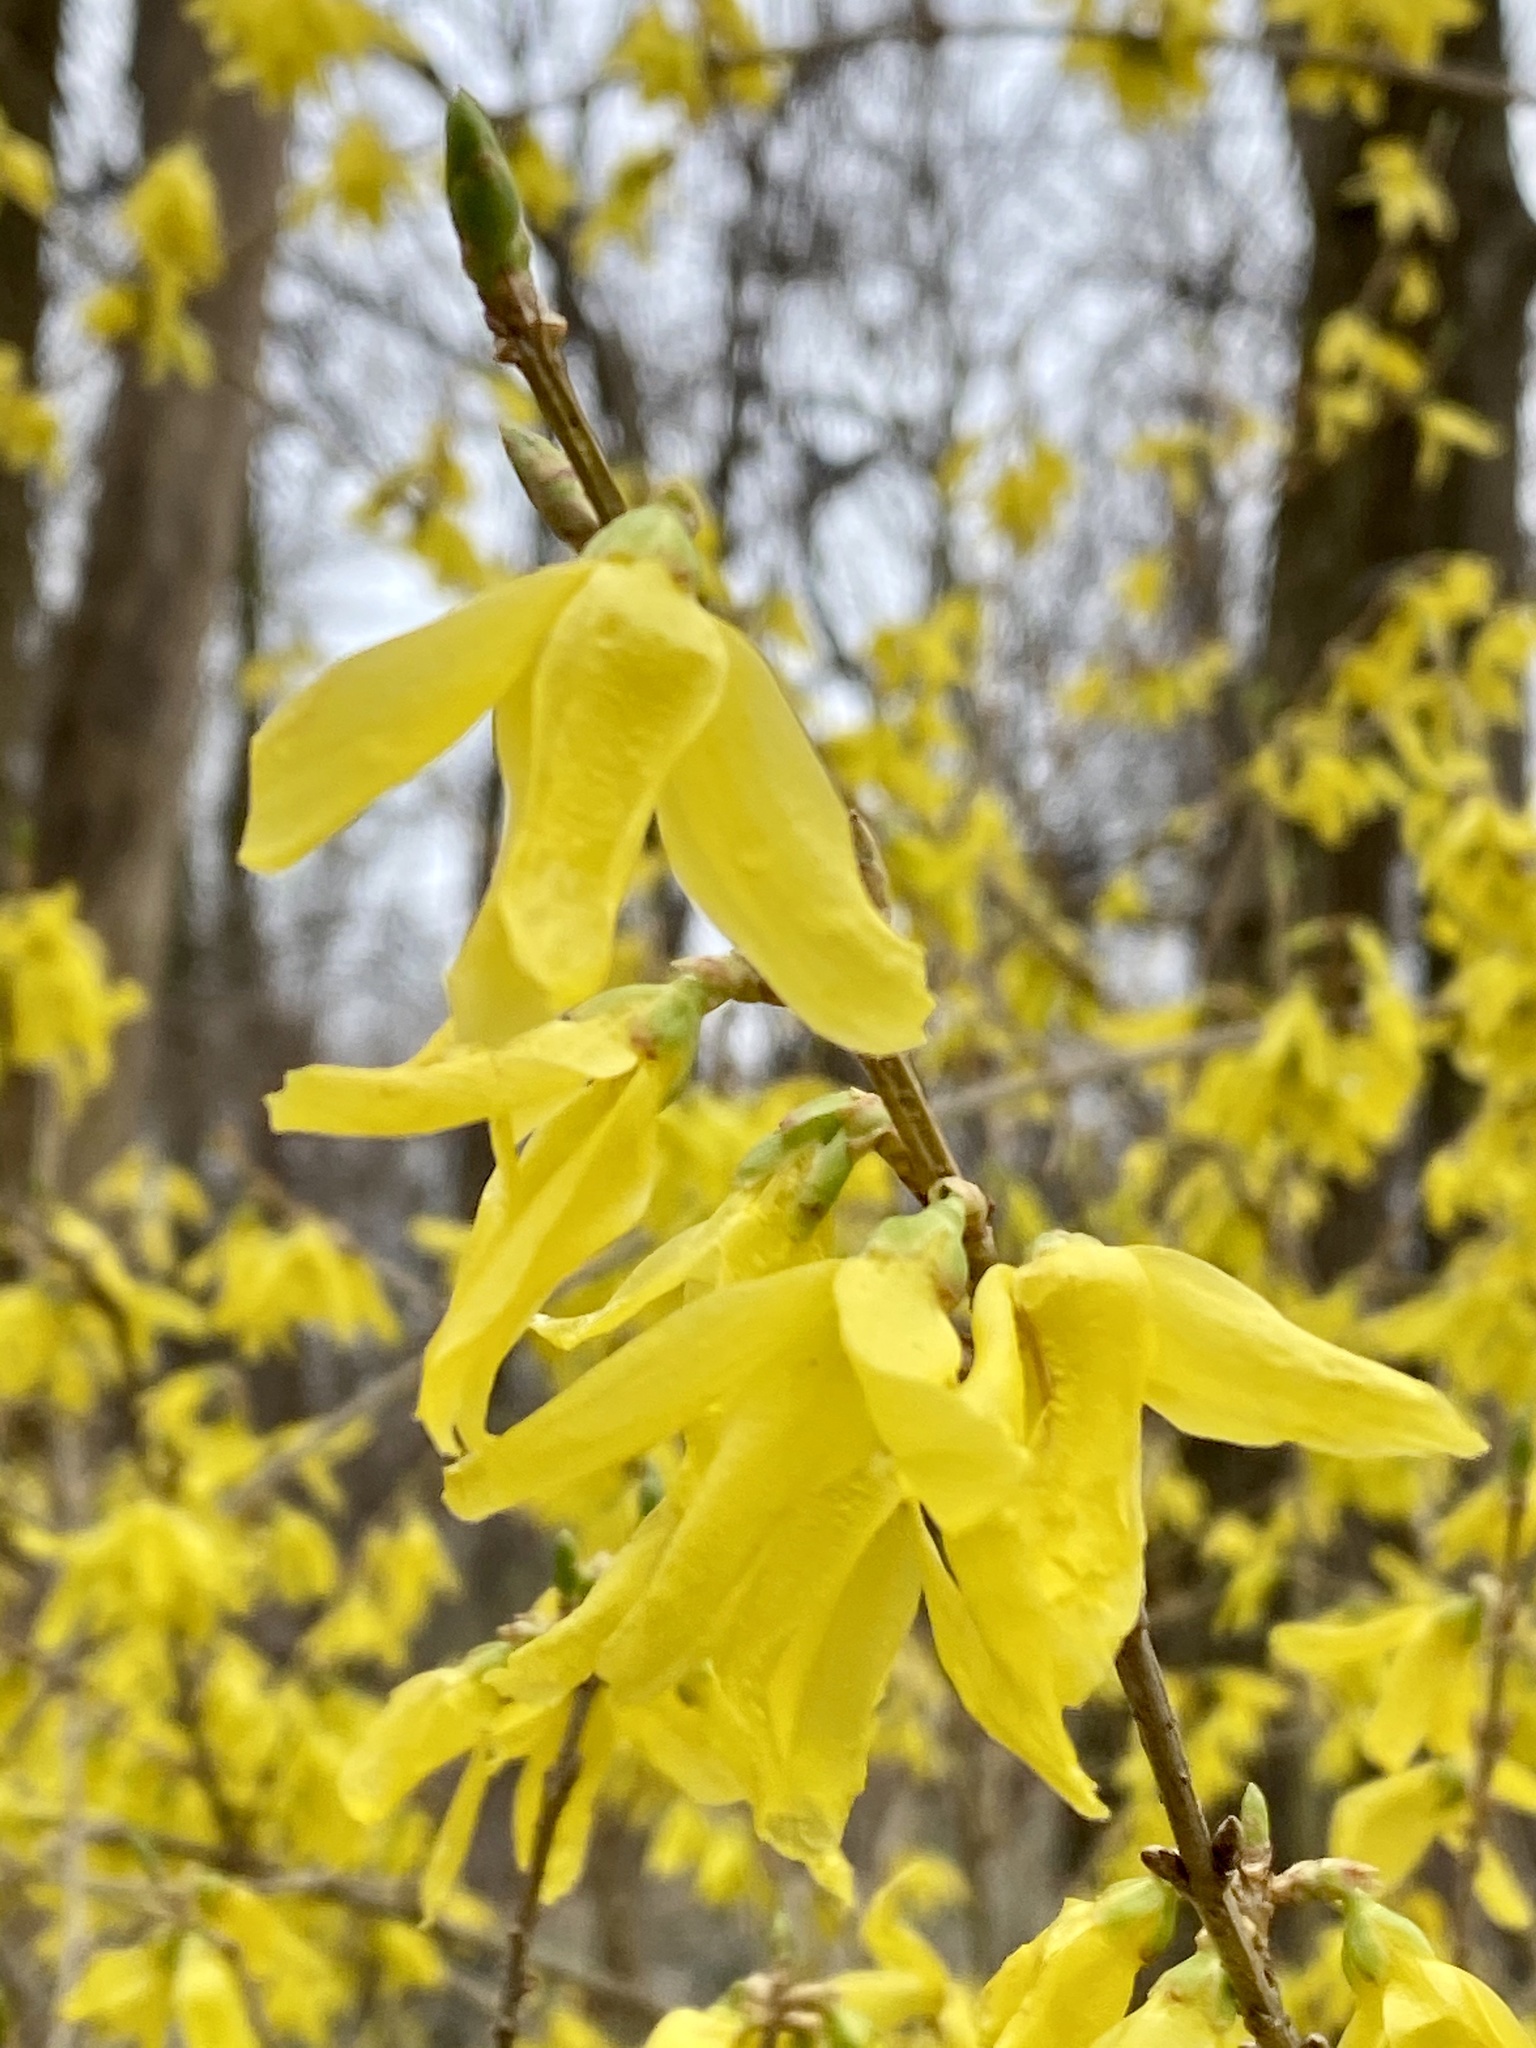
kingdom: Plantae
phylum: Tracheophyta
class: Magnoliopsida
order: Lamiales
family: Oleaceae
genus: Forsythia
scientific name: Forsythia
